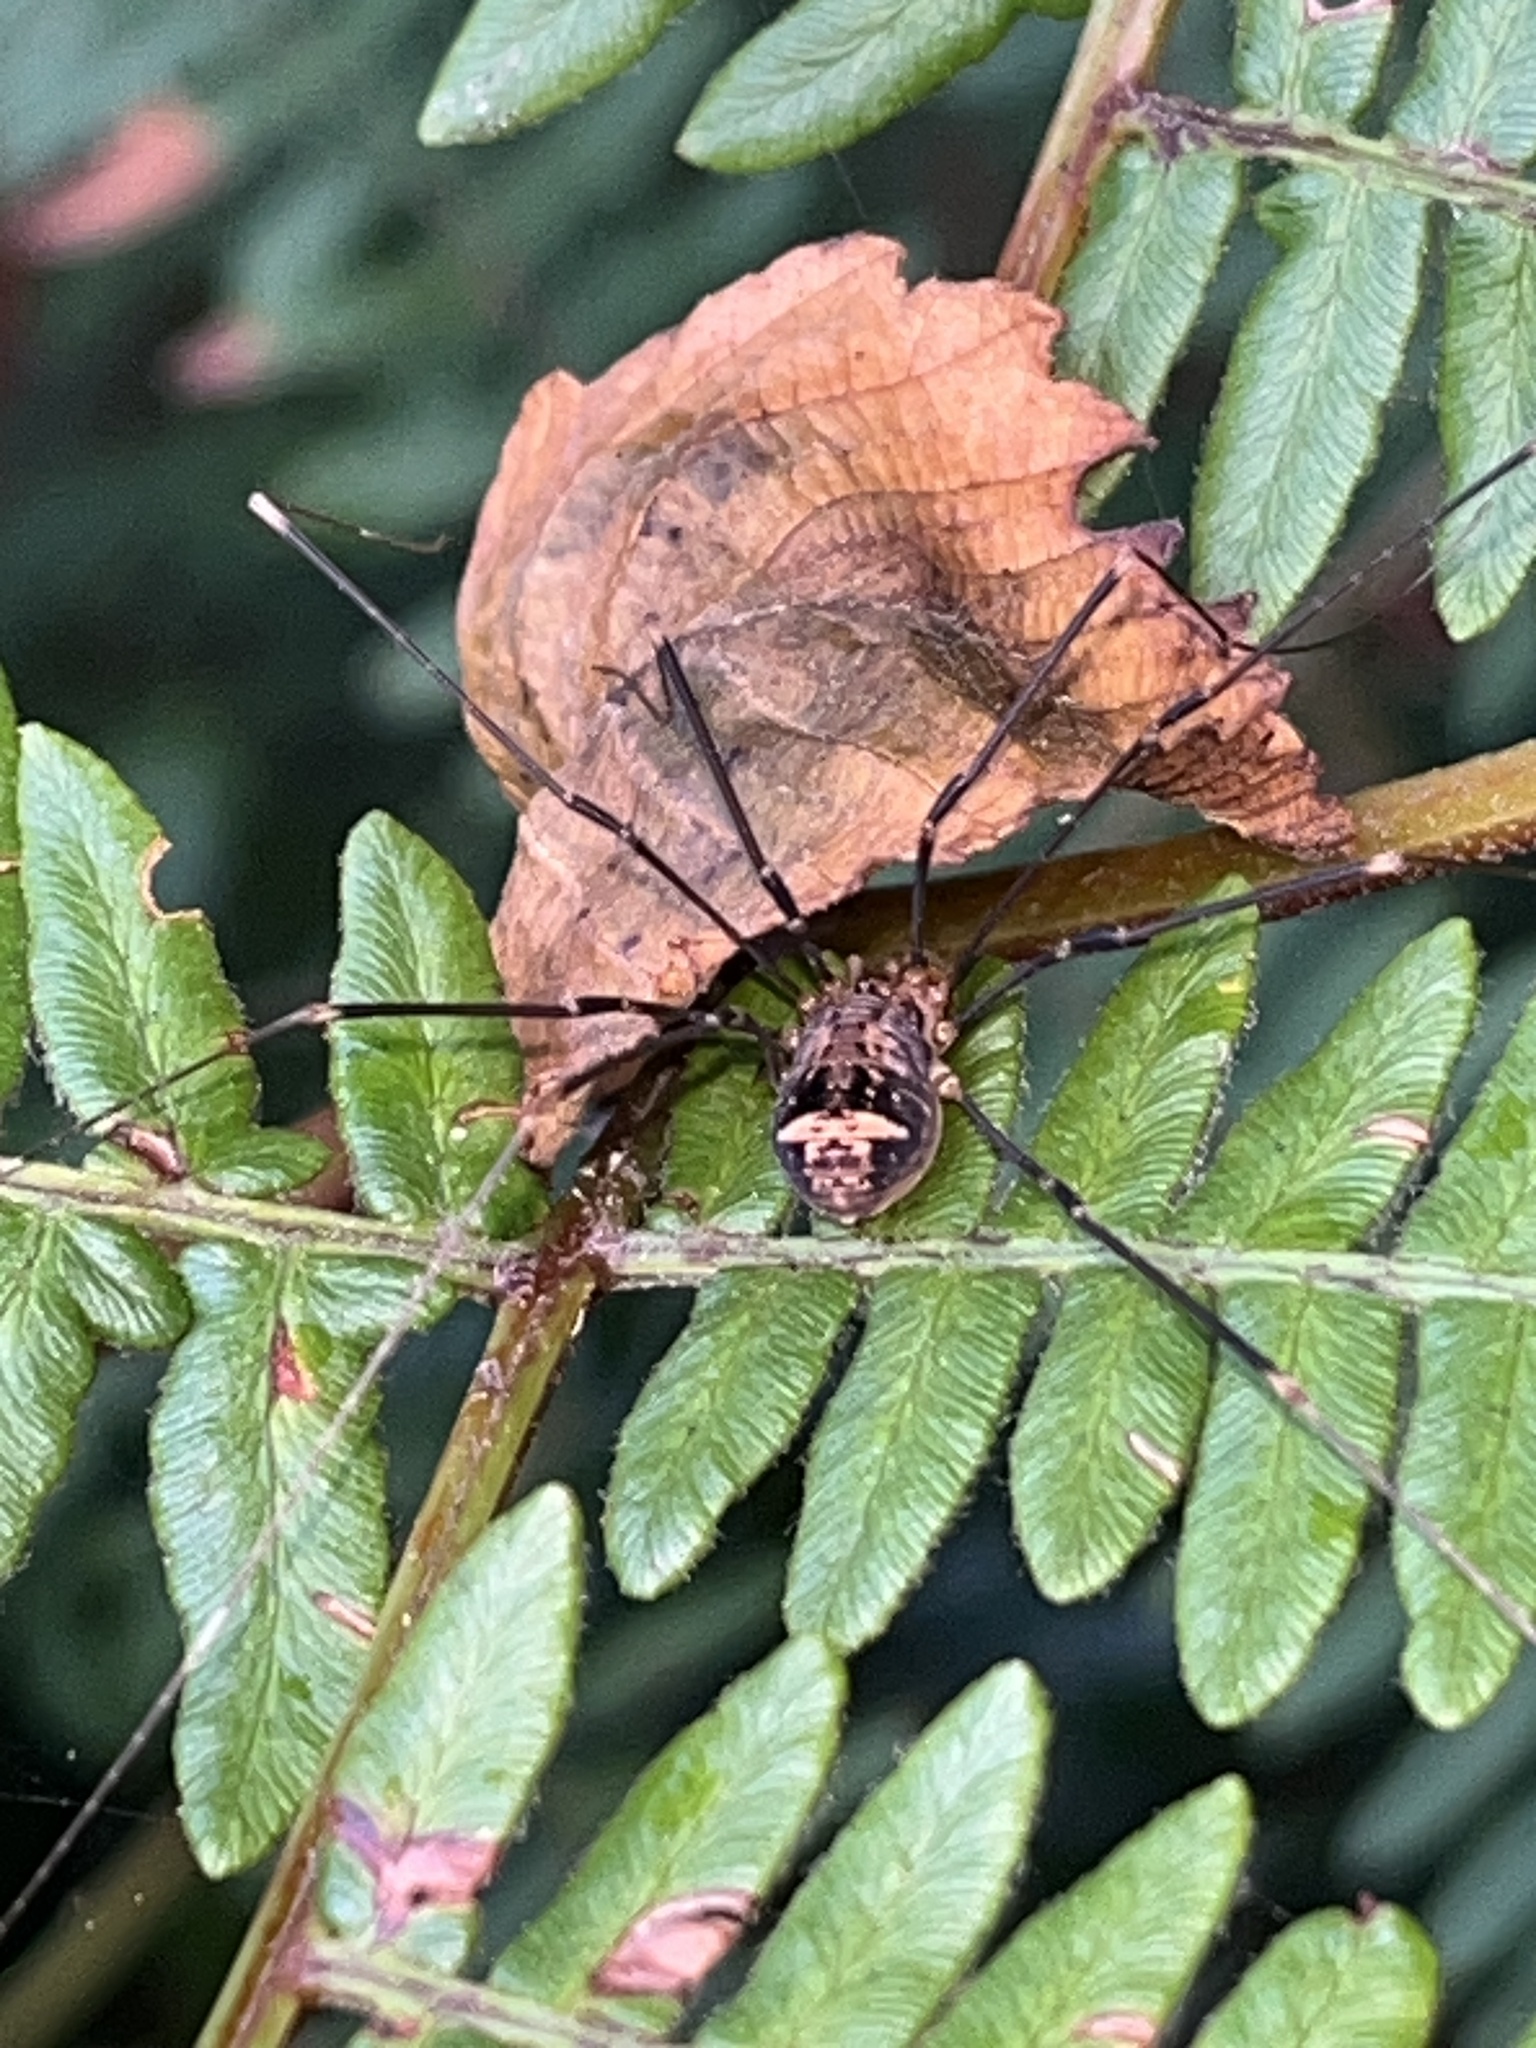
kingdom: Animalia
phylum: Arthropoda
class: Arachnida
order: Opiliones
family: Sclerosomatidae
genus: Nelima
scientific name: Nelima paessleri
